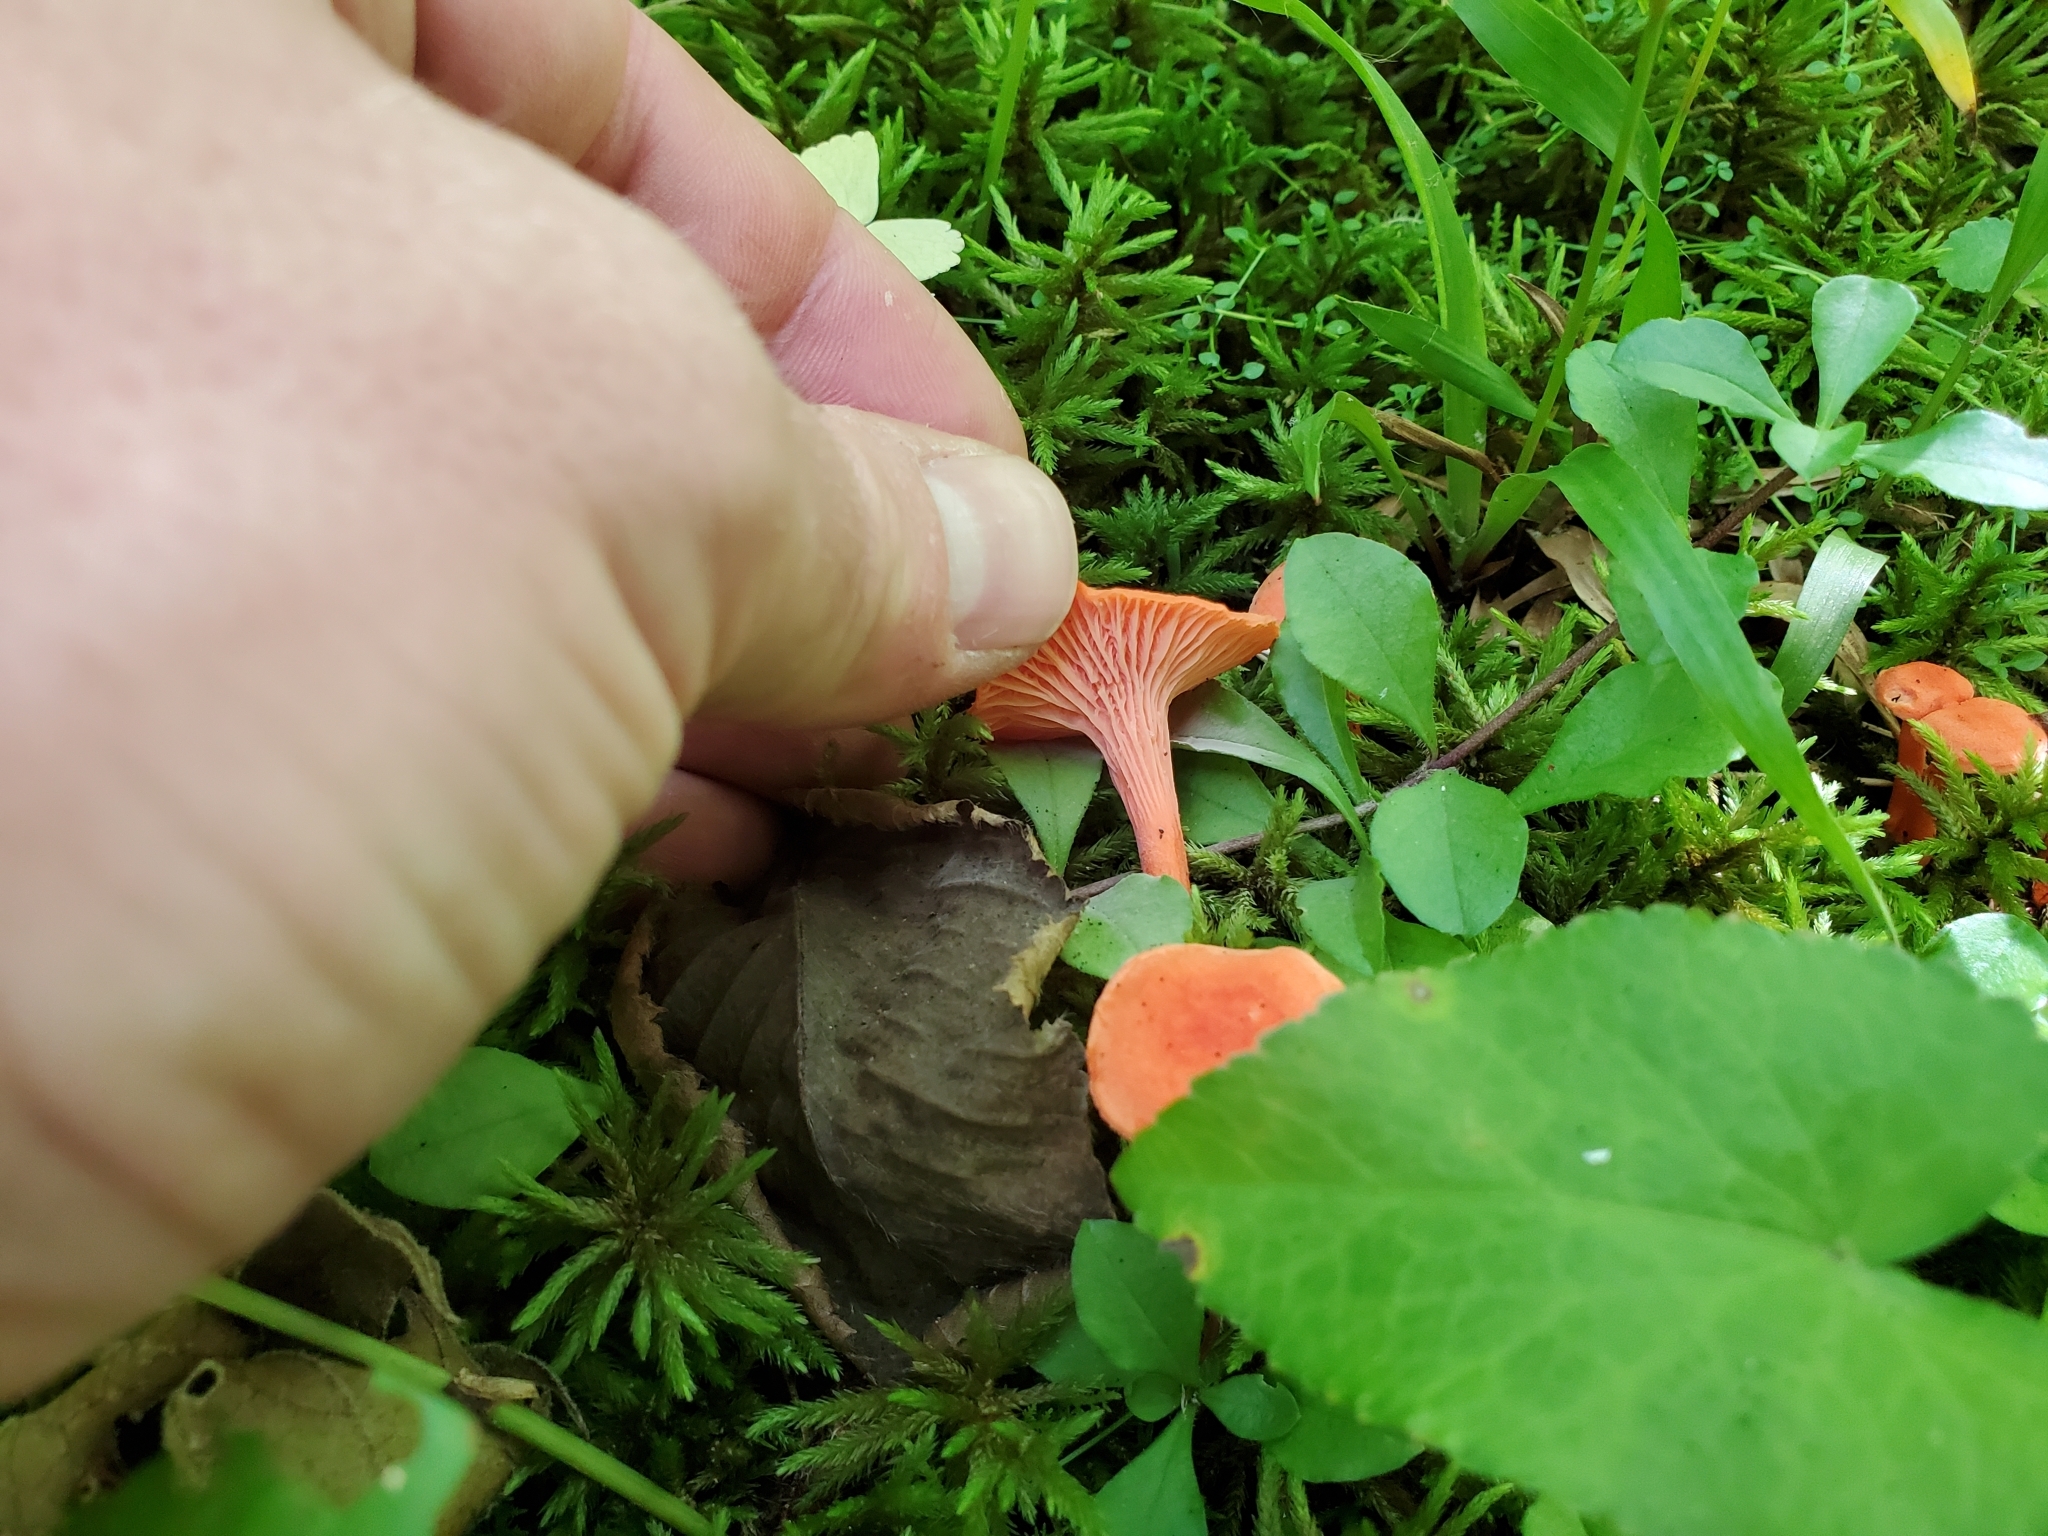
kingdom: Fungi
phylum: Basidiomycota
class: Agaricomycetes
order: Cantharellales
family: Hydnaceae
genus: Cantharellus
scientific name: Cantharellus cinnabarinus
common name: Cinnabar chanterelle
